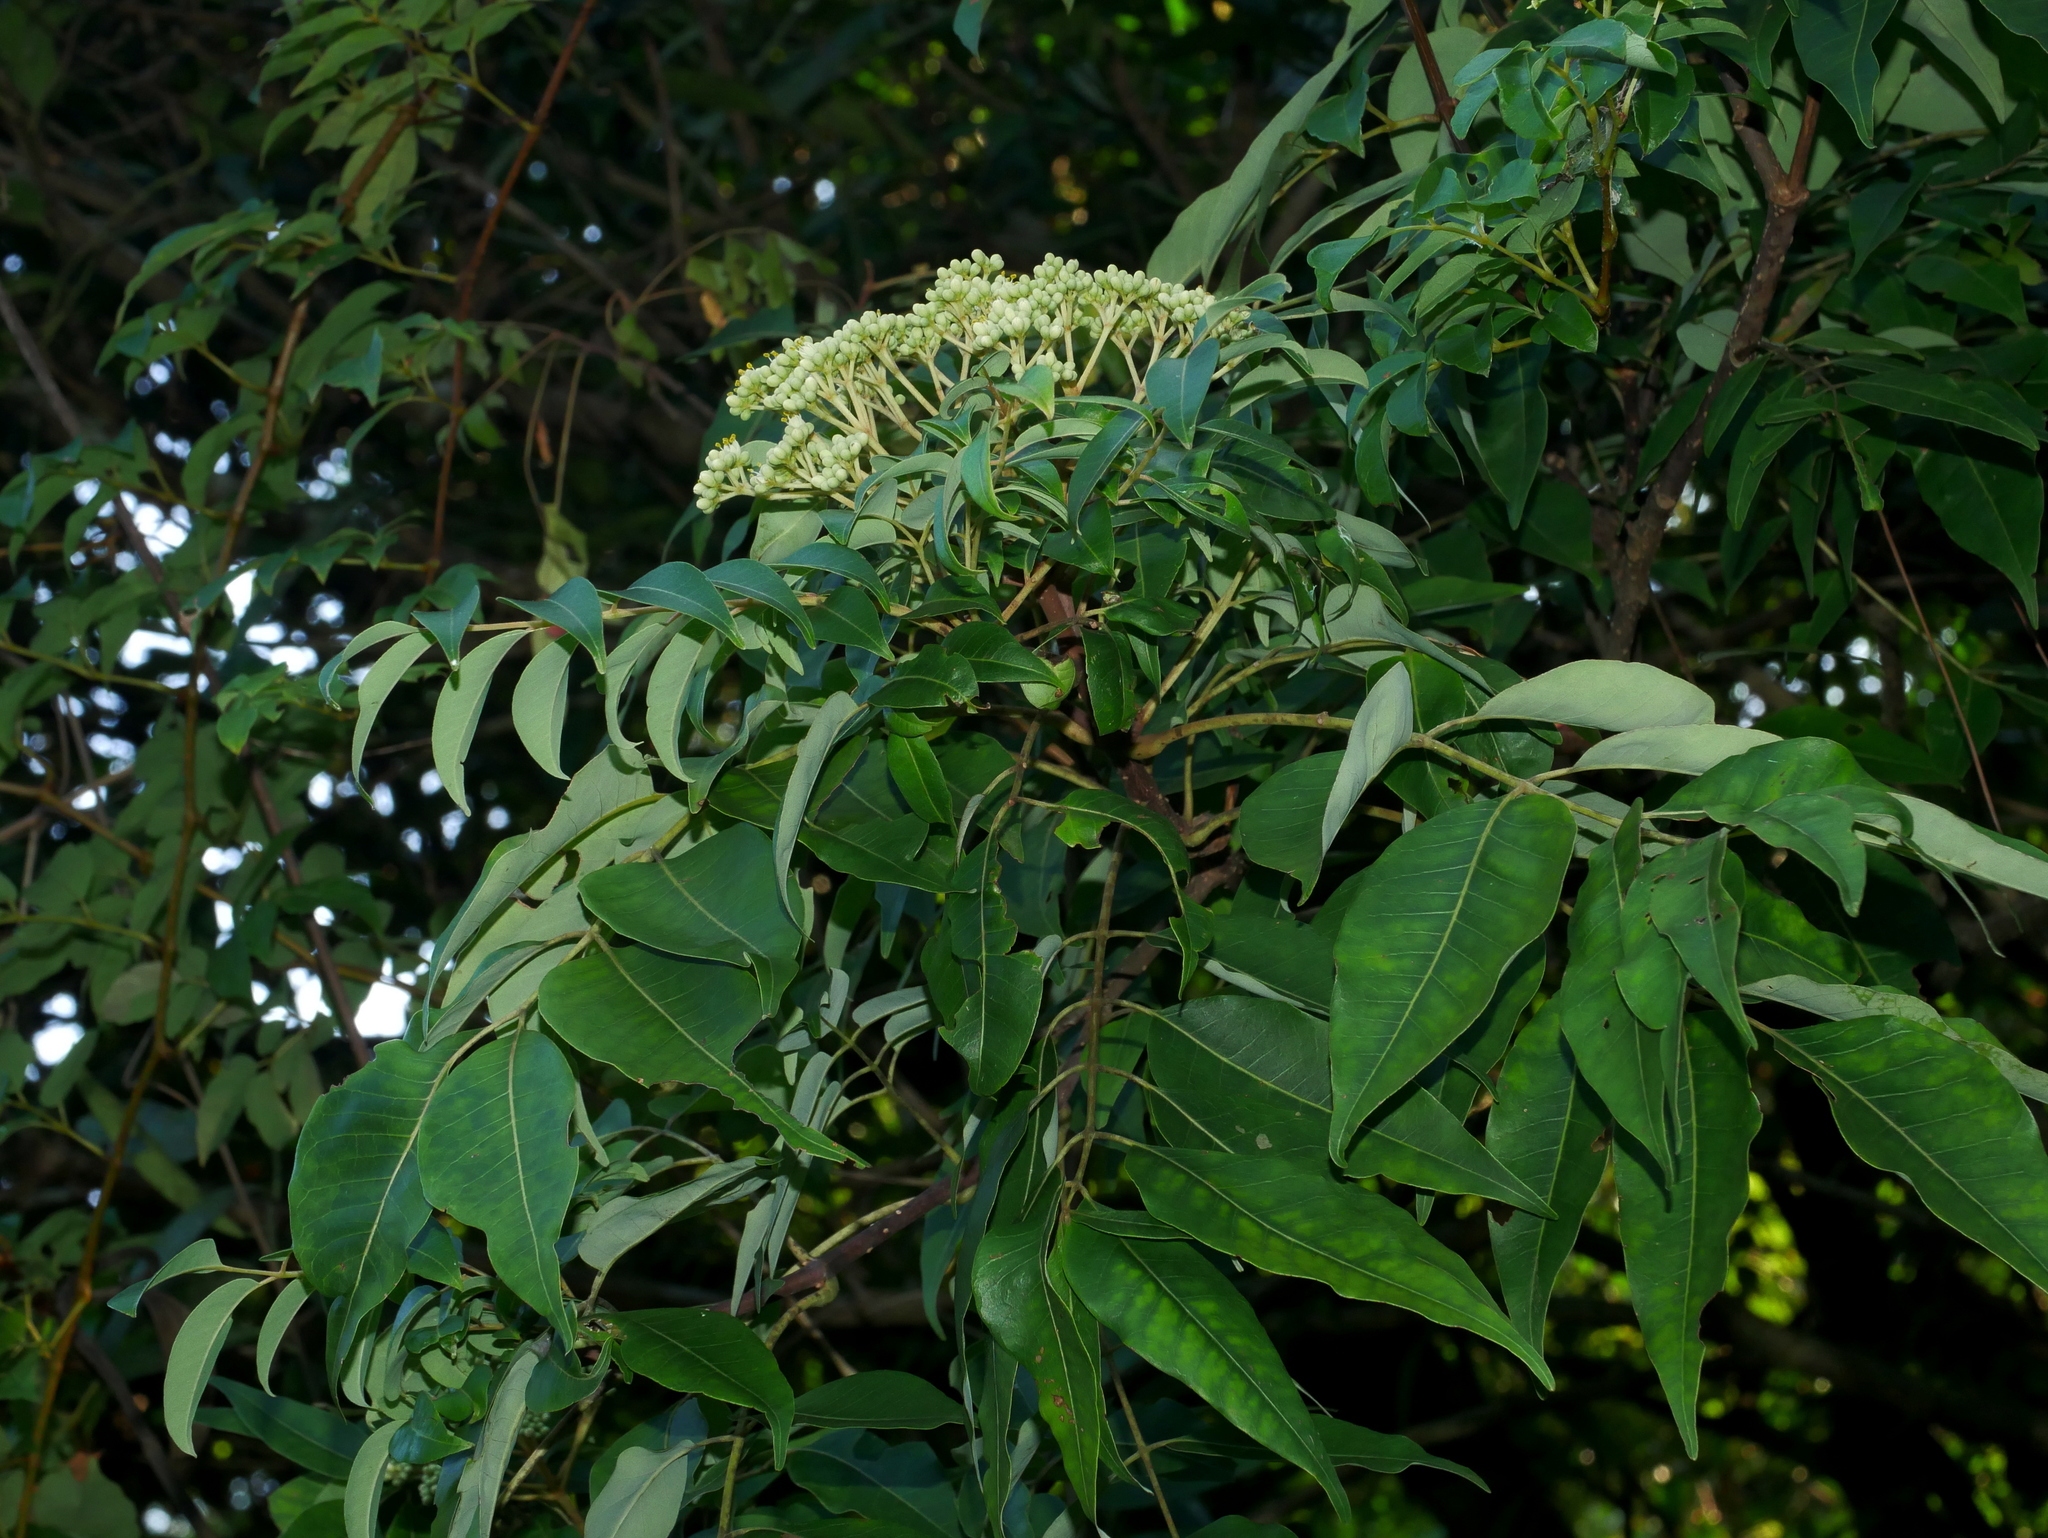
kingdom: Plantae
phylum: Tracheophyta
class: Magnoliopsida
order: Sapindales
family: Rutaceae
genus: Tetradium
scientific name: Tetradium glabrifolium
